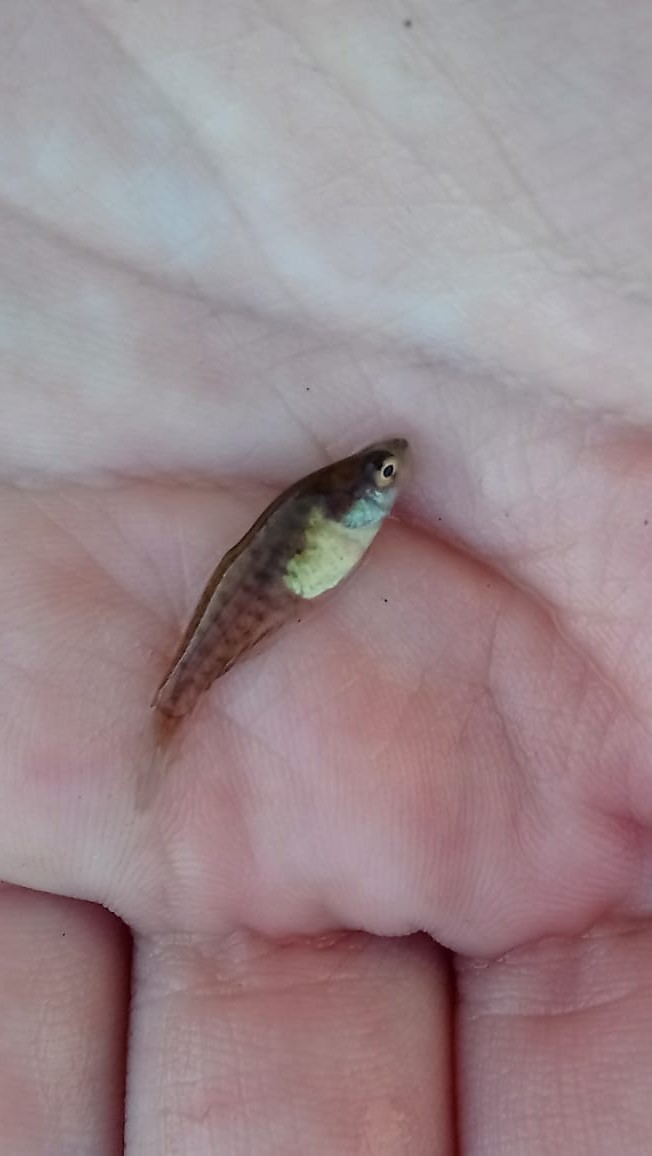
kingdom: Animalia
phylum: Chordata
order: Cyprinodontiformes
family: Rivulidae
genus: Austrolebias
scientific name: Austrolebias bellottii
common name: Argentine pearlfish
